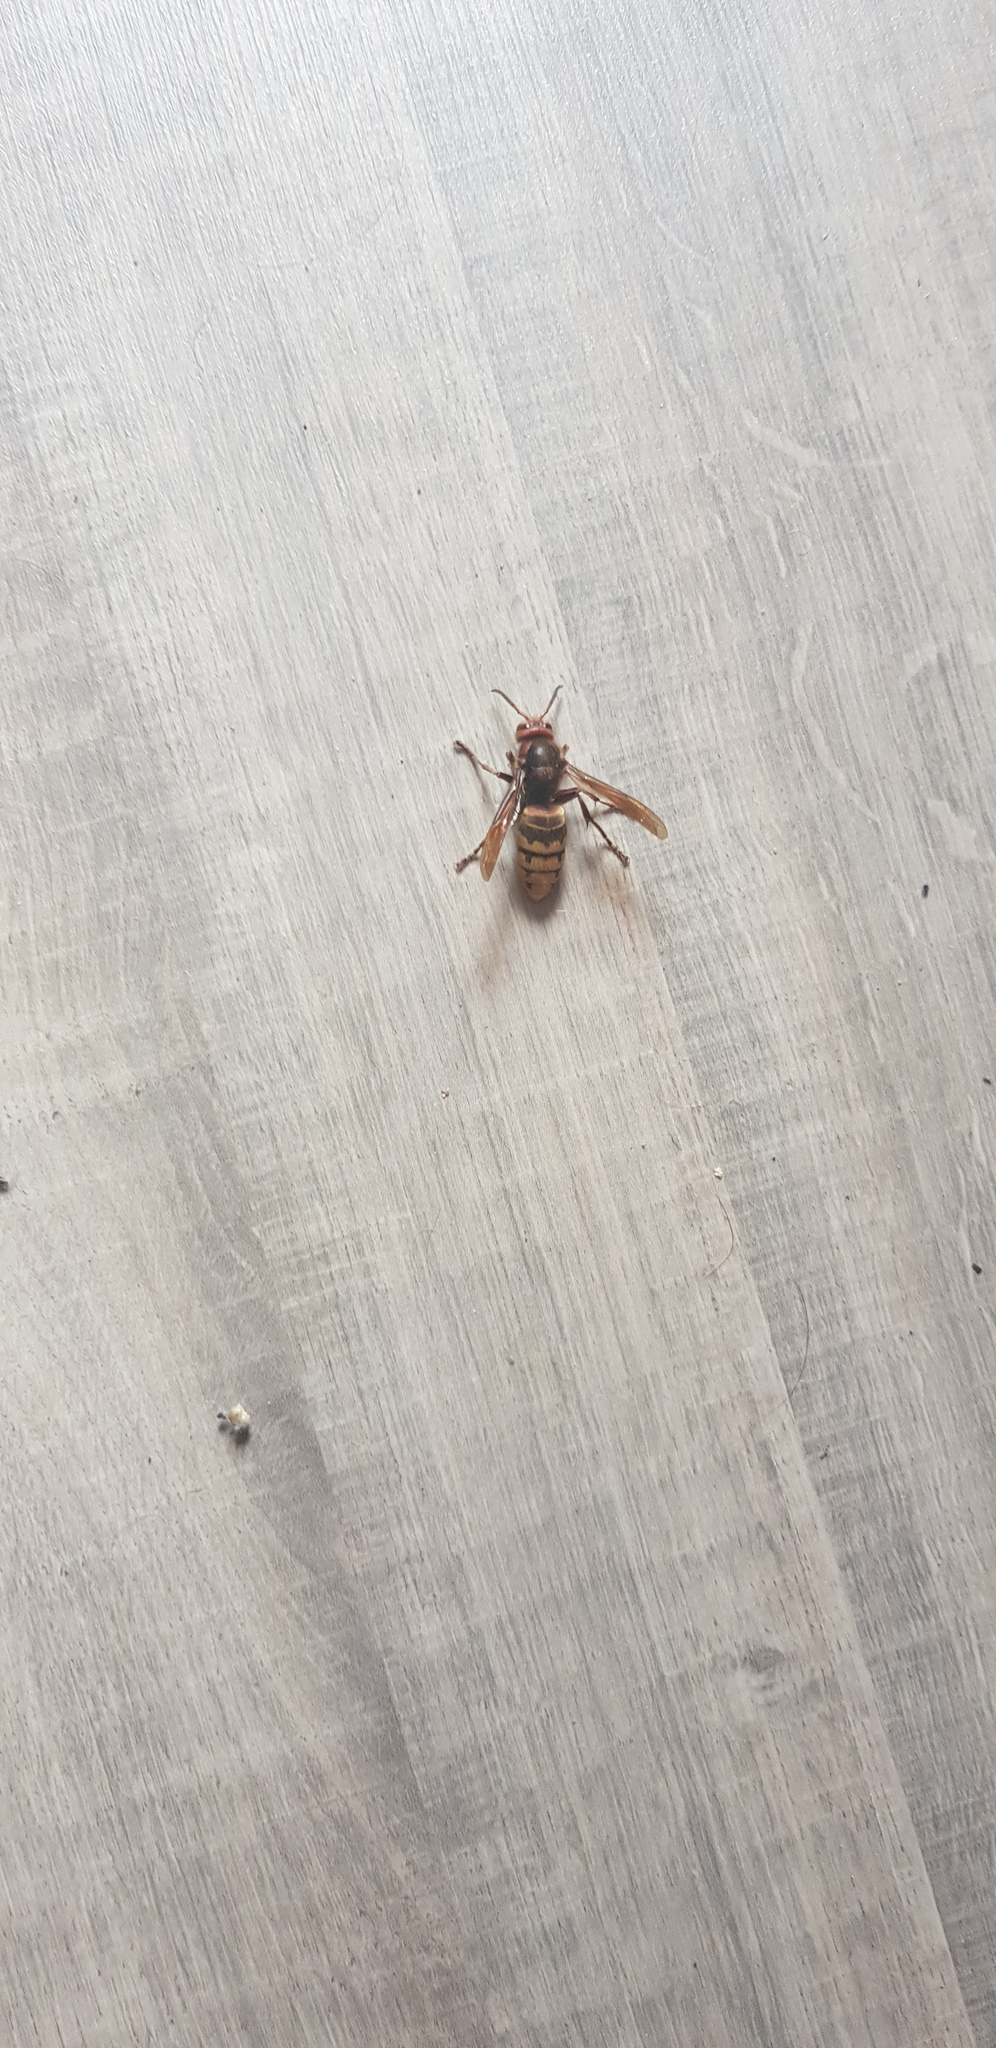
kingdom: Animalia
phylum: Arthropoda
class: Insecta
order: Hymenoptera
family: Vespidae
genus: Vespa
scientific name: Vespa crabro
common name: Hornet
